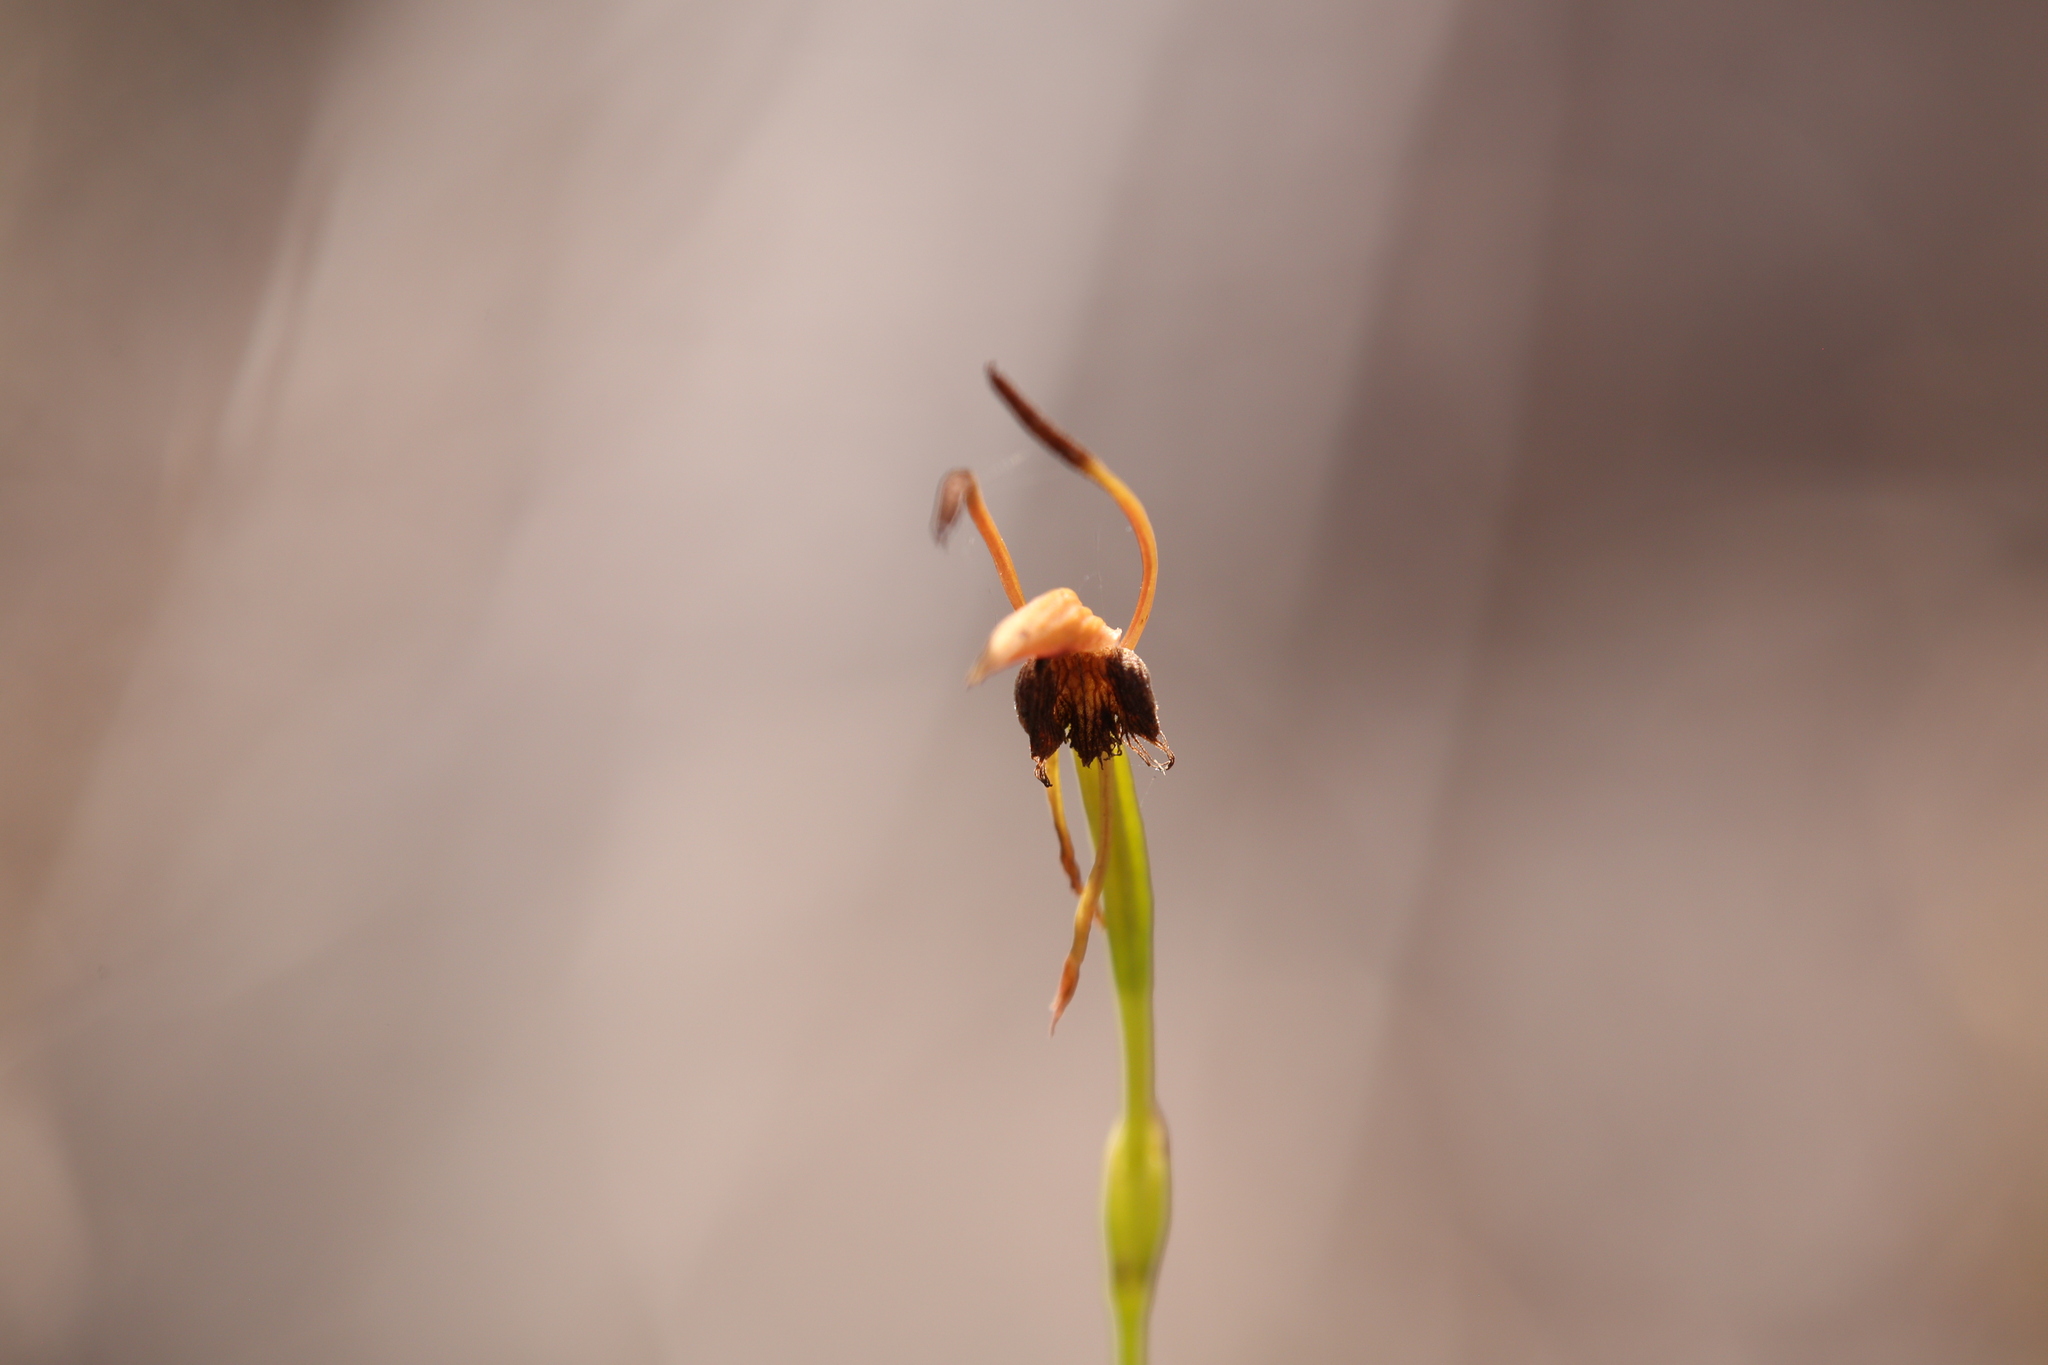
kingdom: Plantae
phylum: Tracheophyta
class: Liliopsida
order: Asparagales
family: Orchidaceae
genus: Leporella
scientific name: Leporella fimbriata
